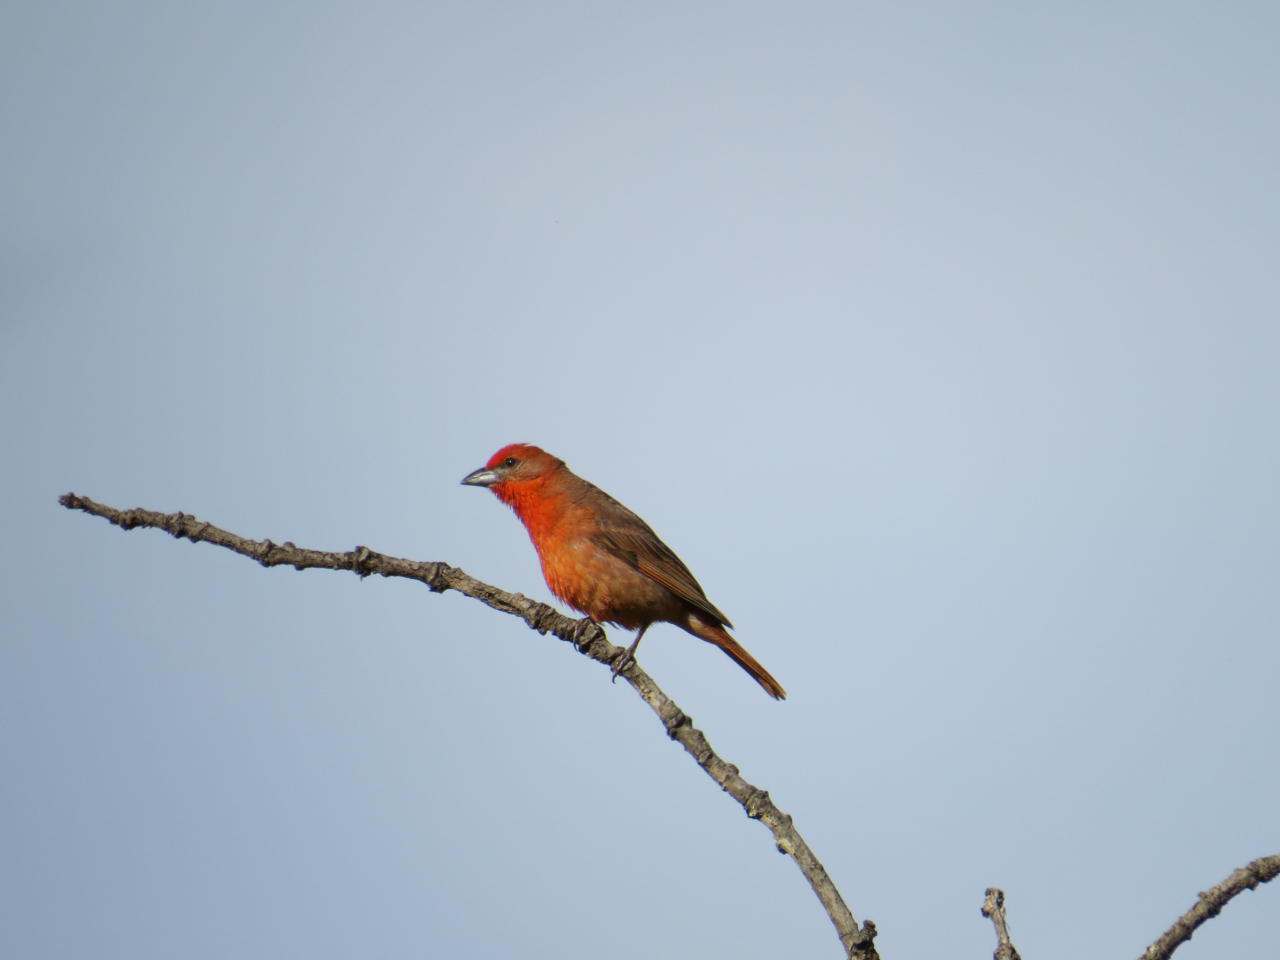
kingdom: Animalia
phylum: Chordata
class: Aves
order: Passeriformes
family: Cardinalidae
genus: Piranga
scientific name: Piranga flava
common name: Red tanager
